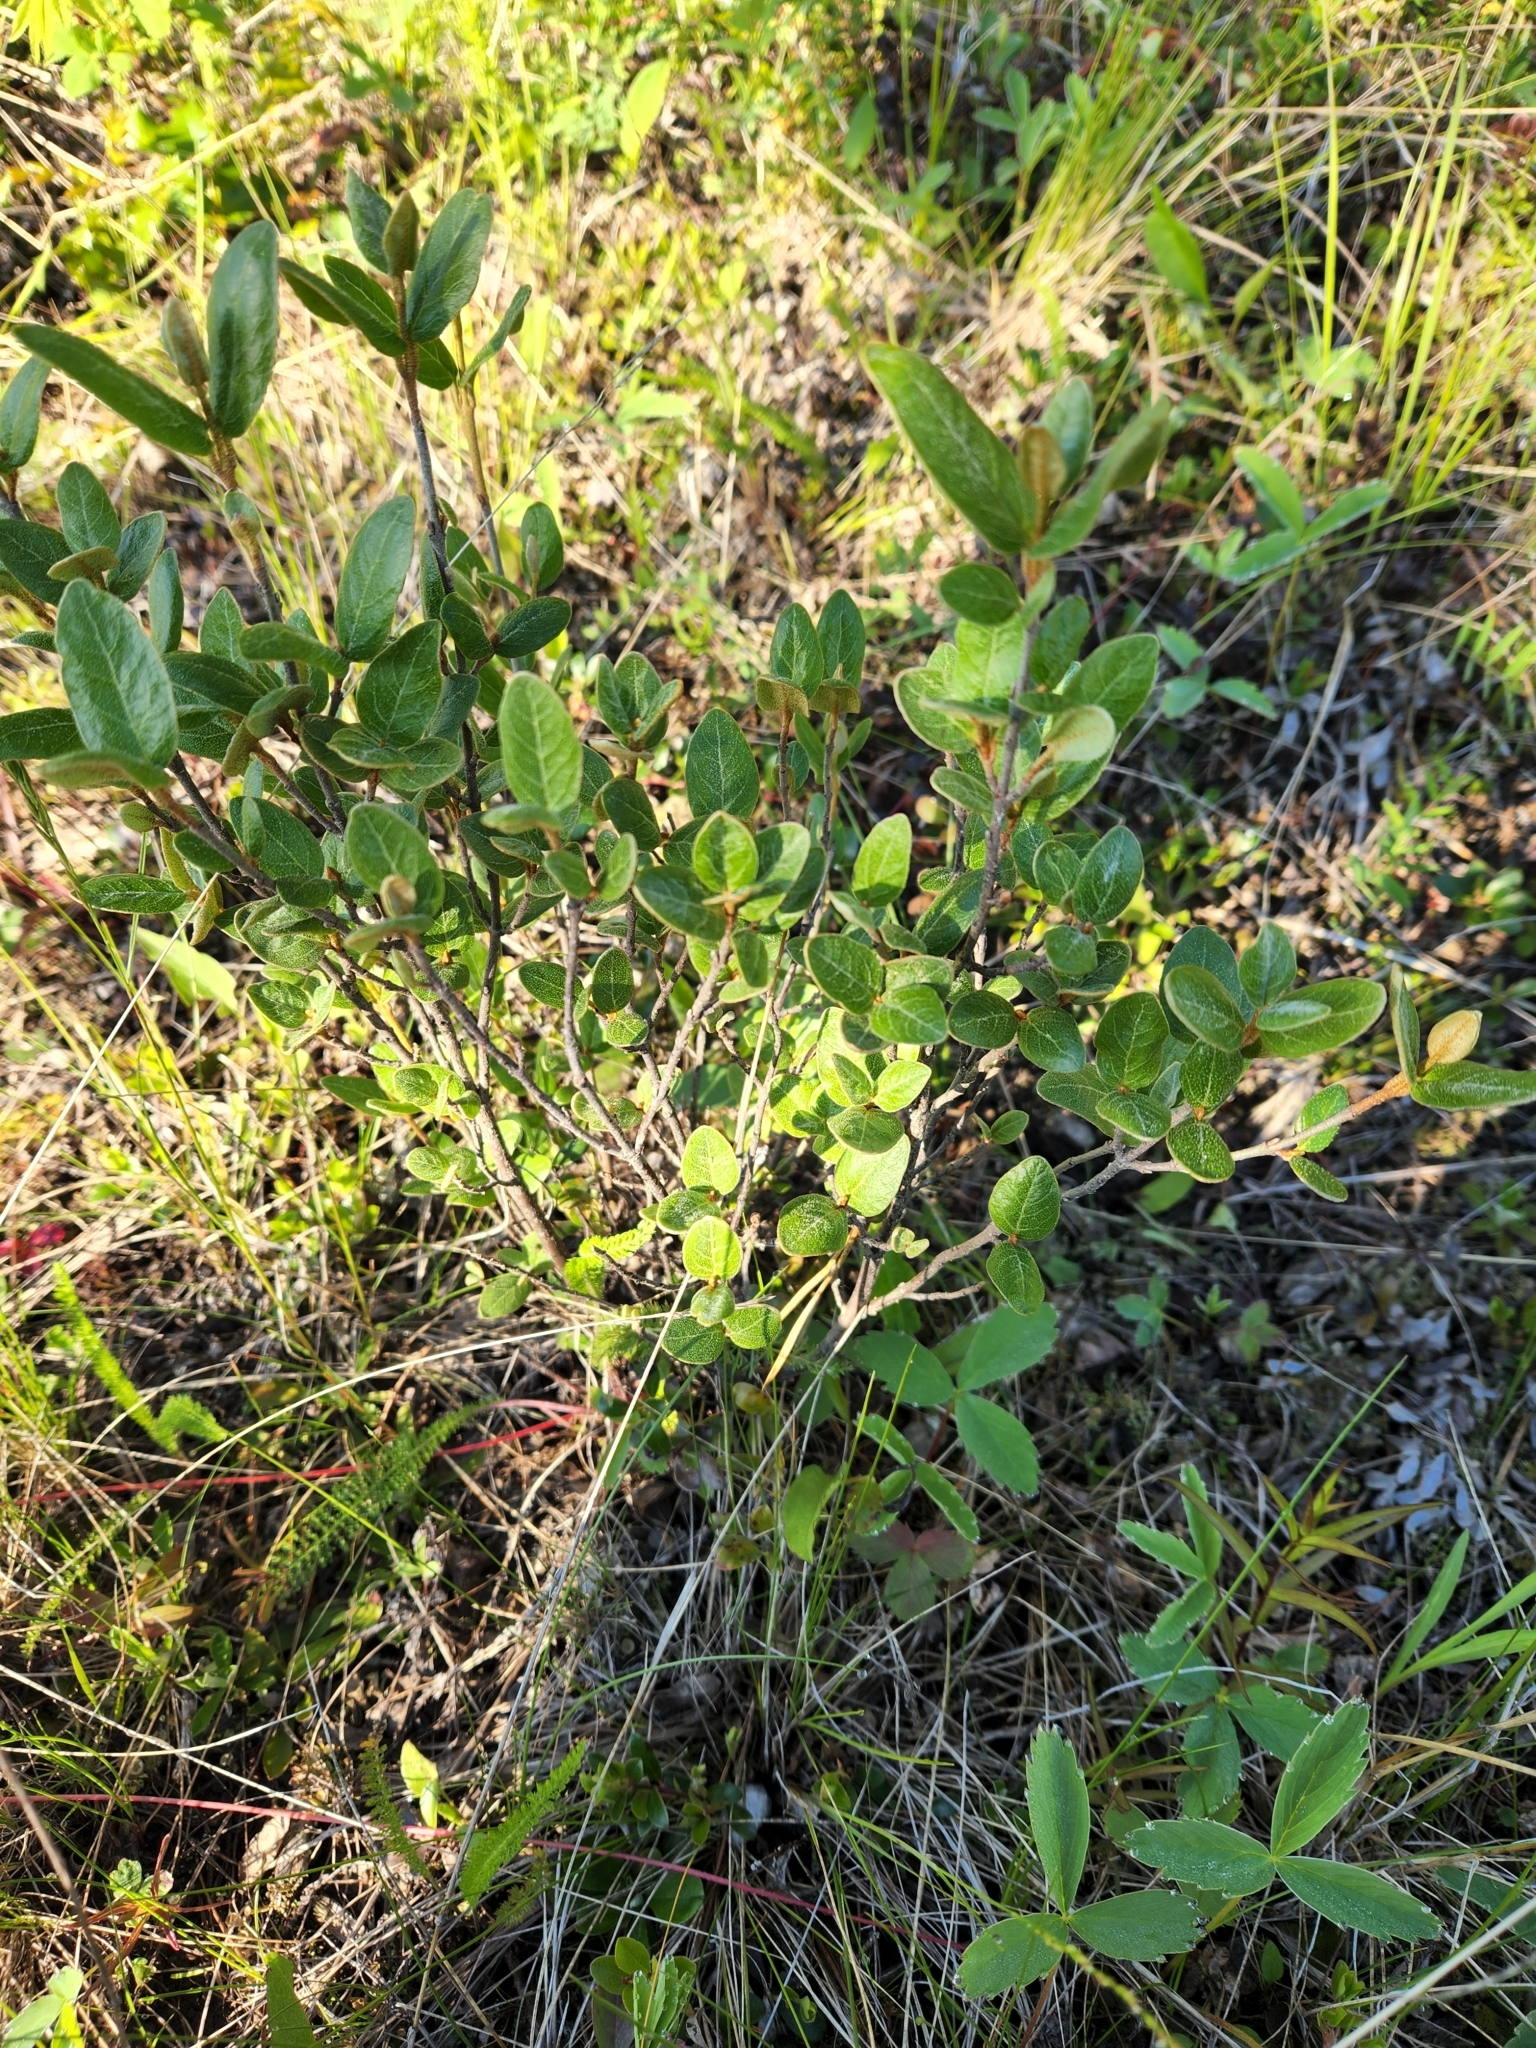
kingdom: Plantae
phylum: Tracheophyta
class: Magnoliopsida
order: Rosales
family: Elaeagnaceae
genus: Shepherdia
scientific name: Shepherdia canadensis
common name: Soapberry
